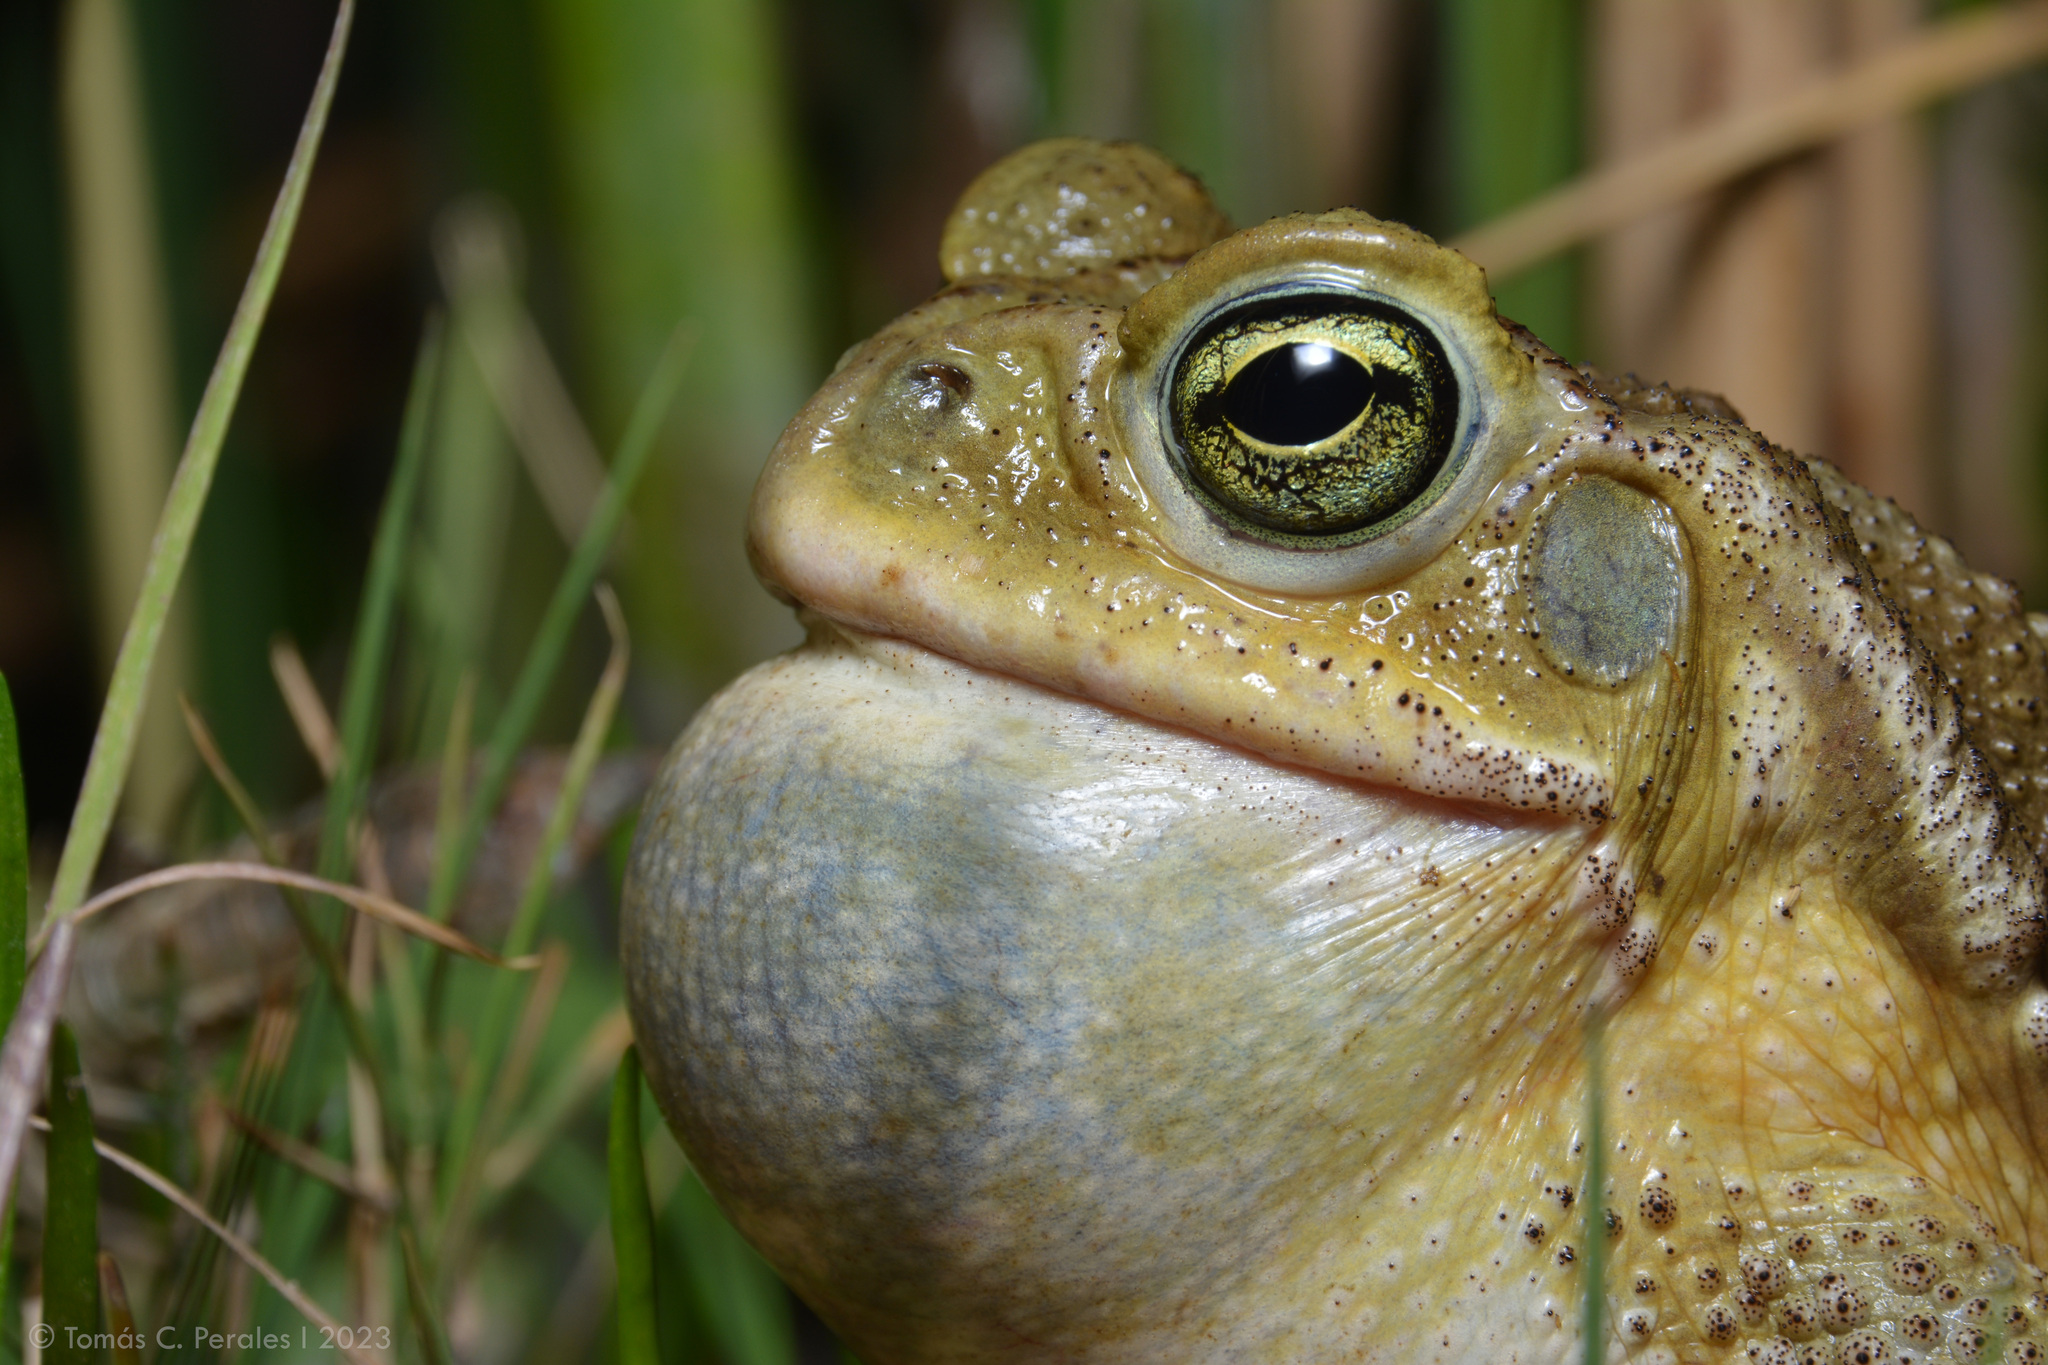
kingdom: Animalia
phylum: Chordata
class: Amphibia
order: Anura
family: Bufonidae
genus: Rhinella
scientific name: Rhinella arenarum
